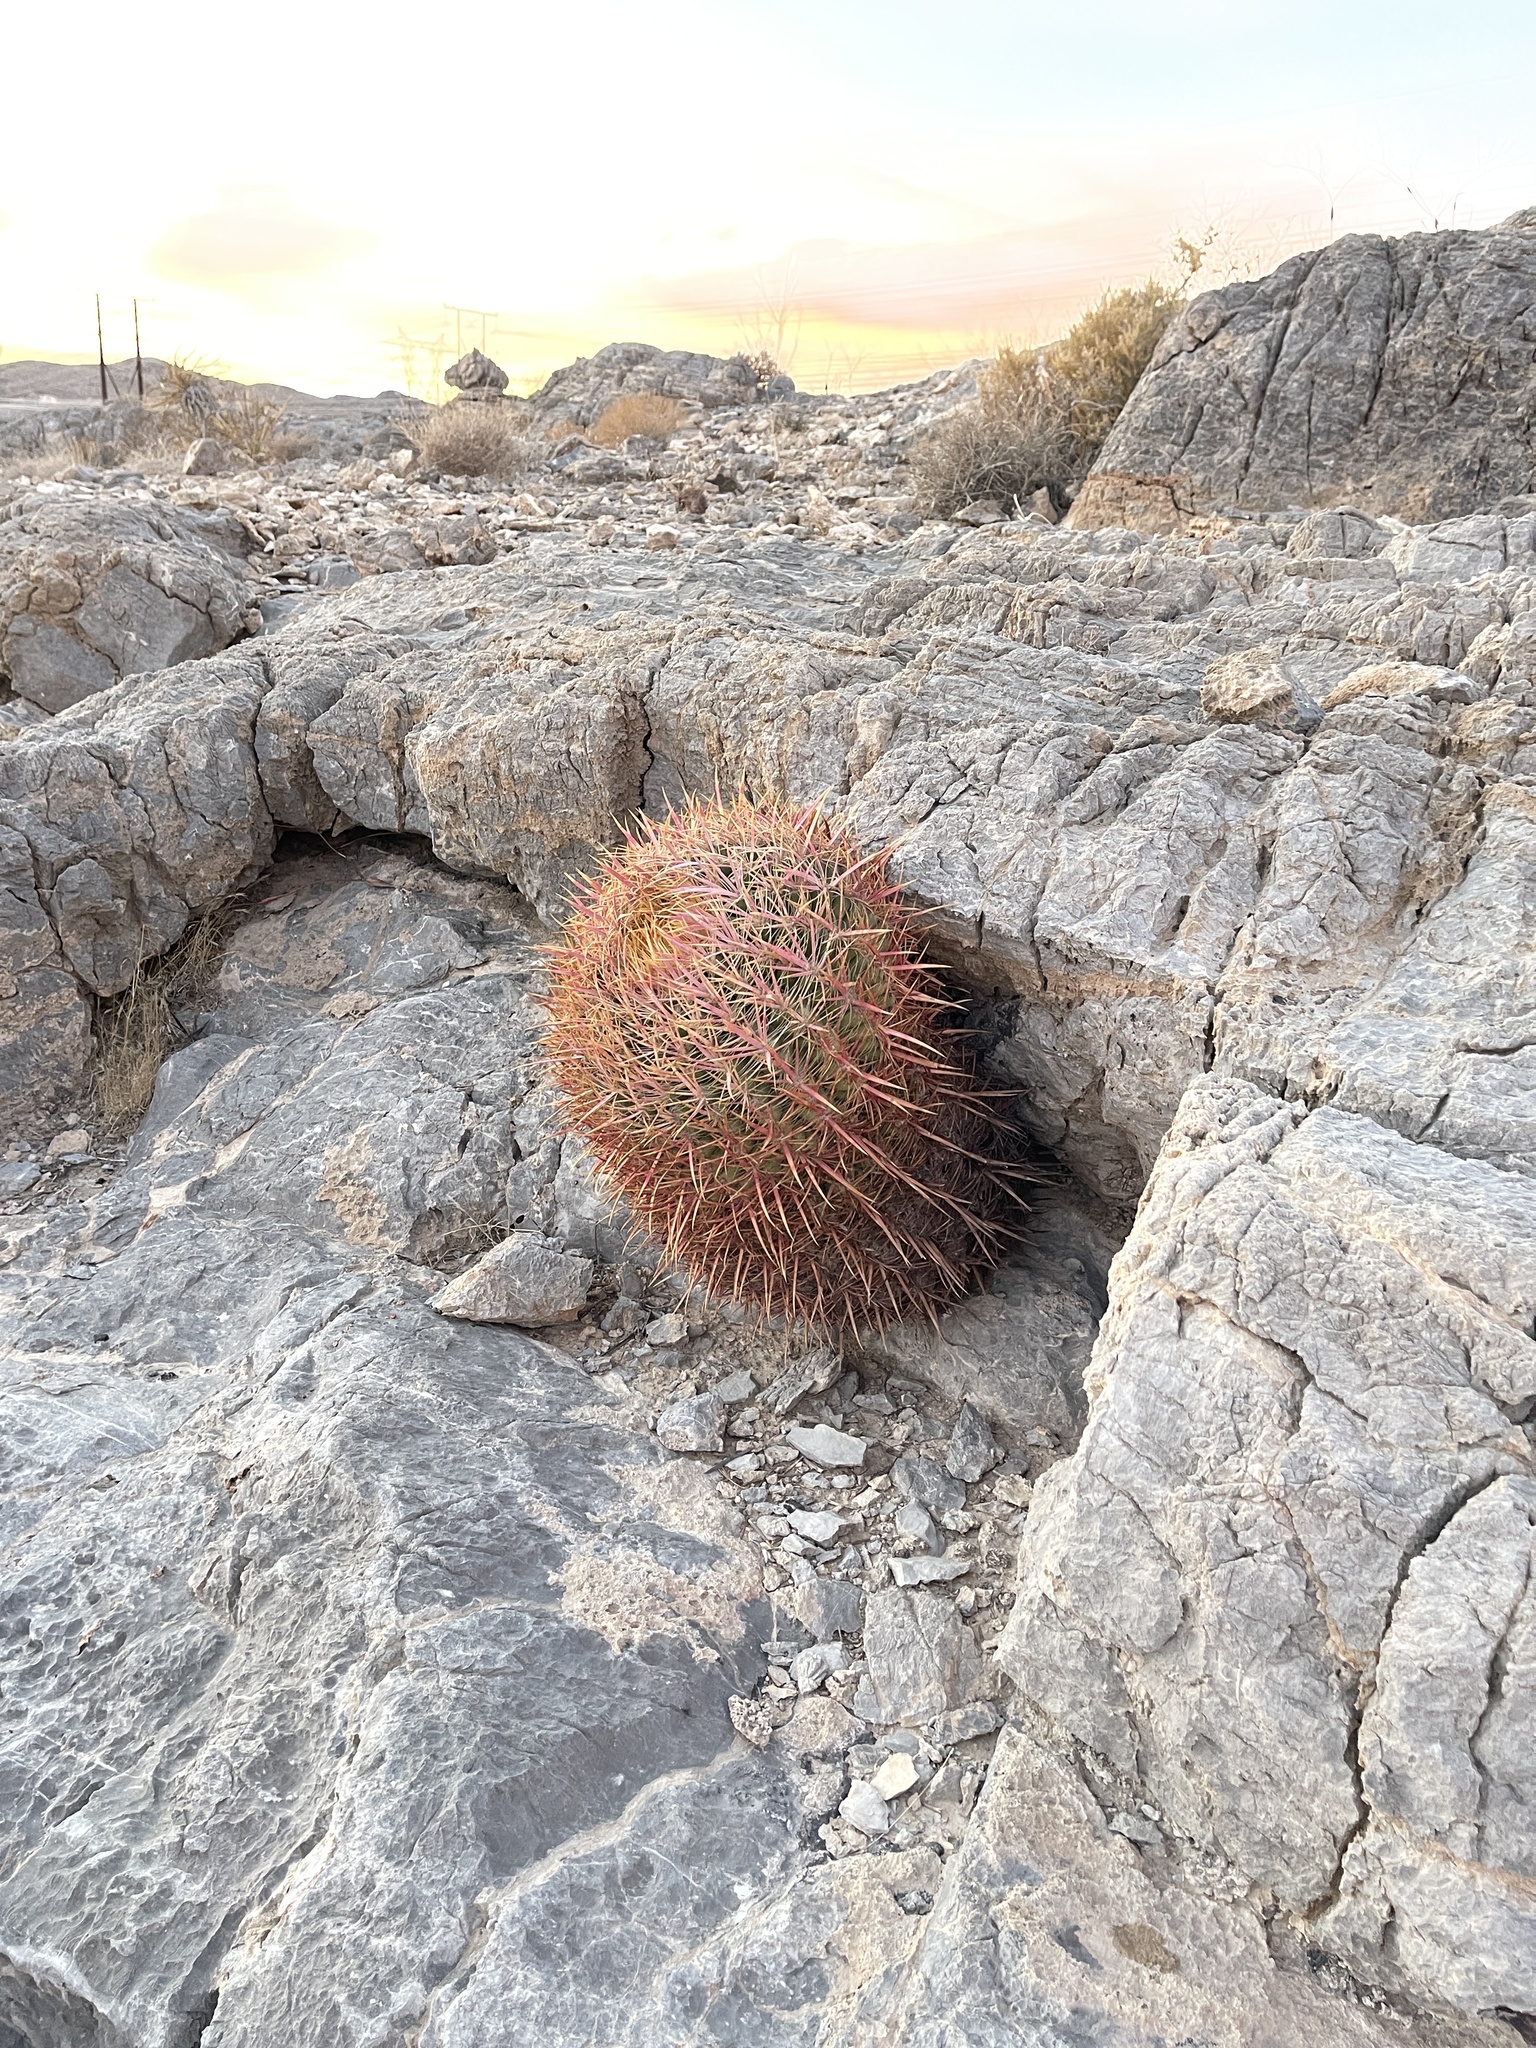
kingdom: Plantae
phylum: Tracheophyta
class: Magnoliopsida
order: Caryophyllales
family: Cactaceae
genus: Ferocactus
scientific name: Ferocactus cylindraceus
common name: California barrel cactus
